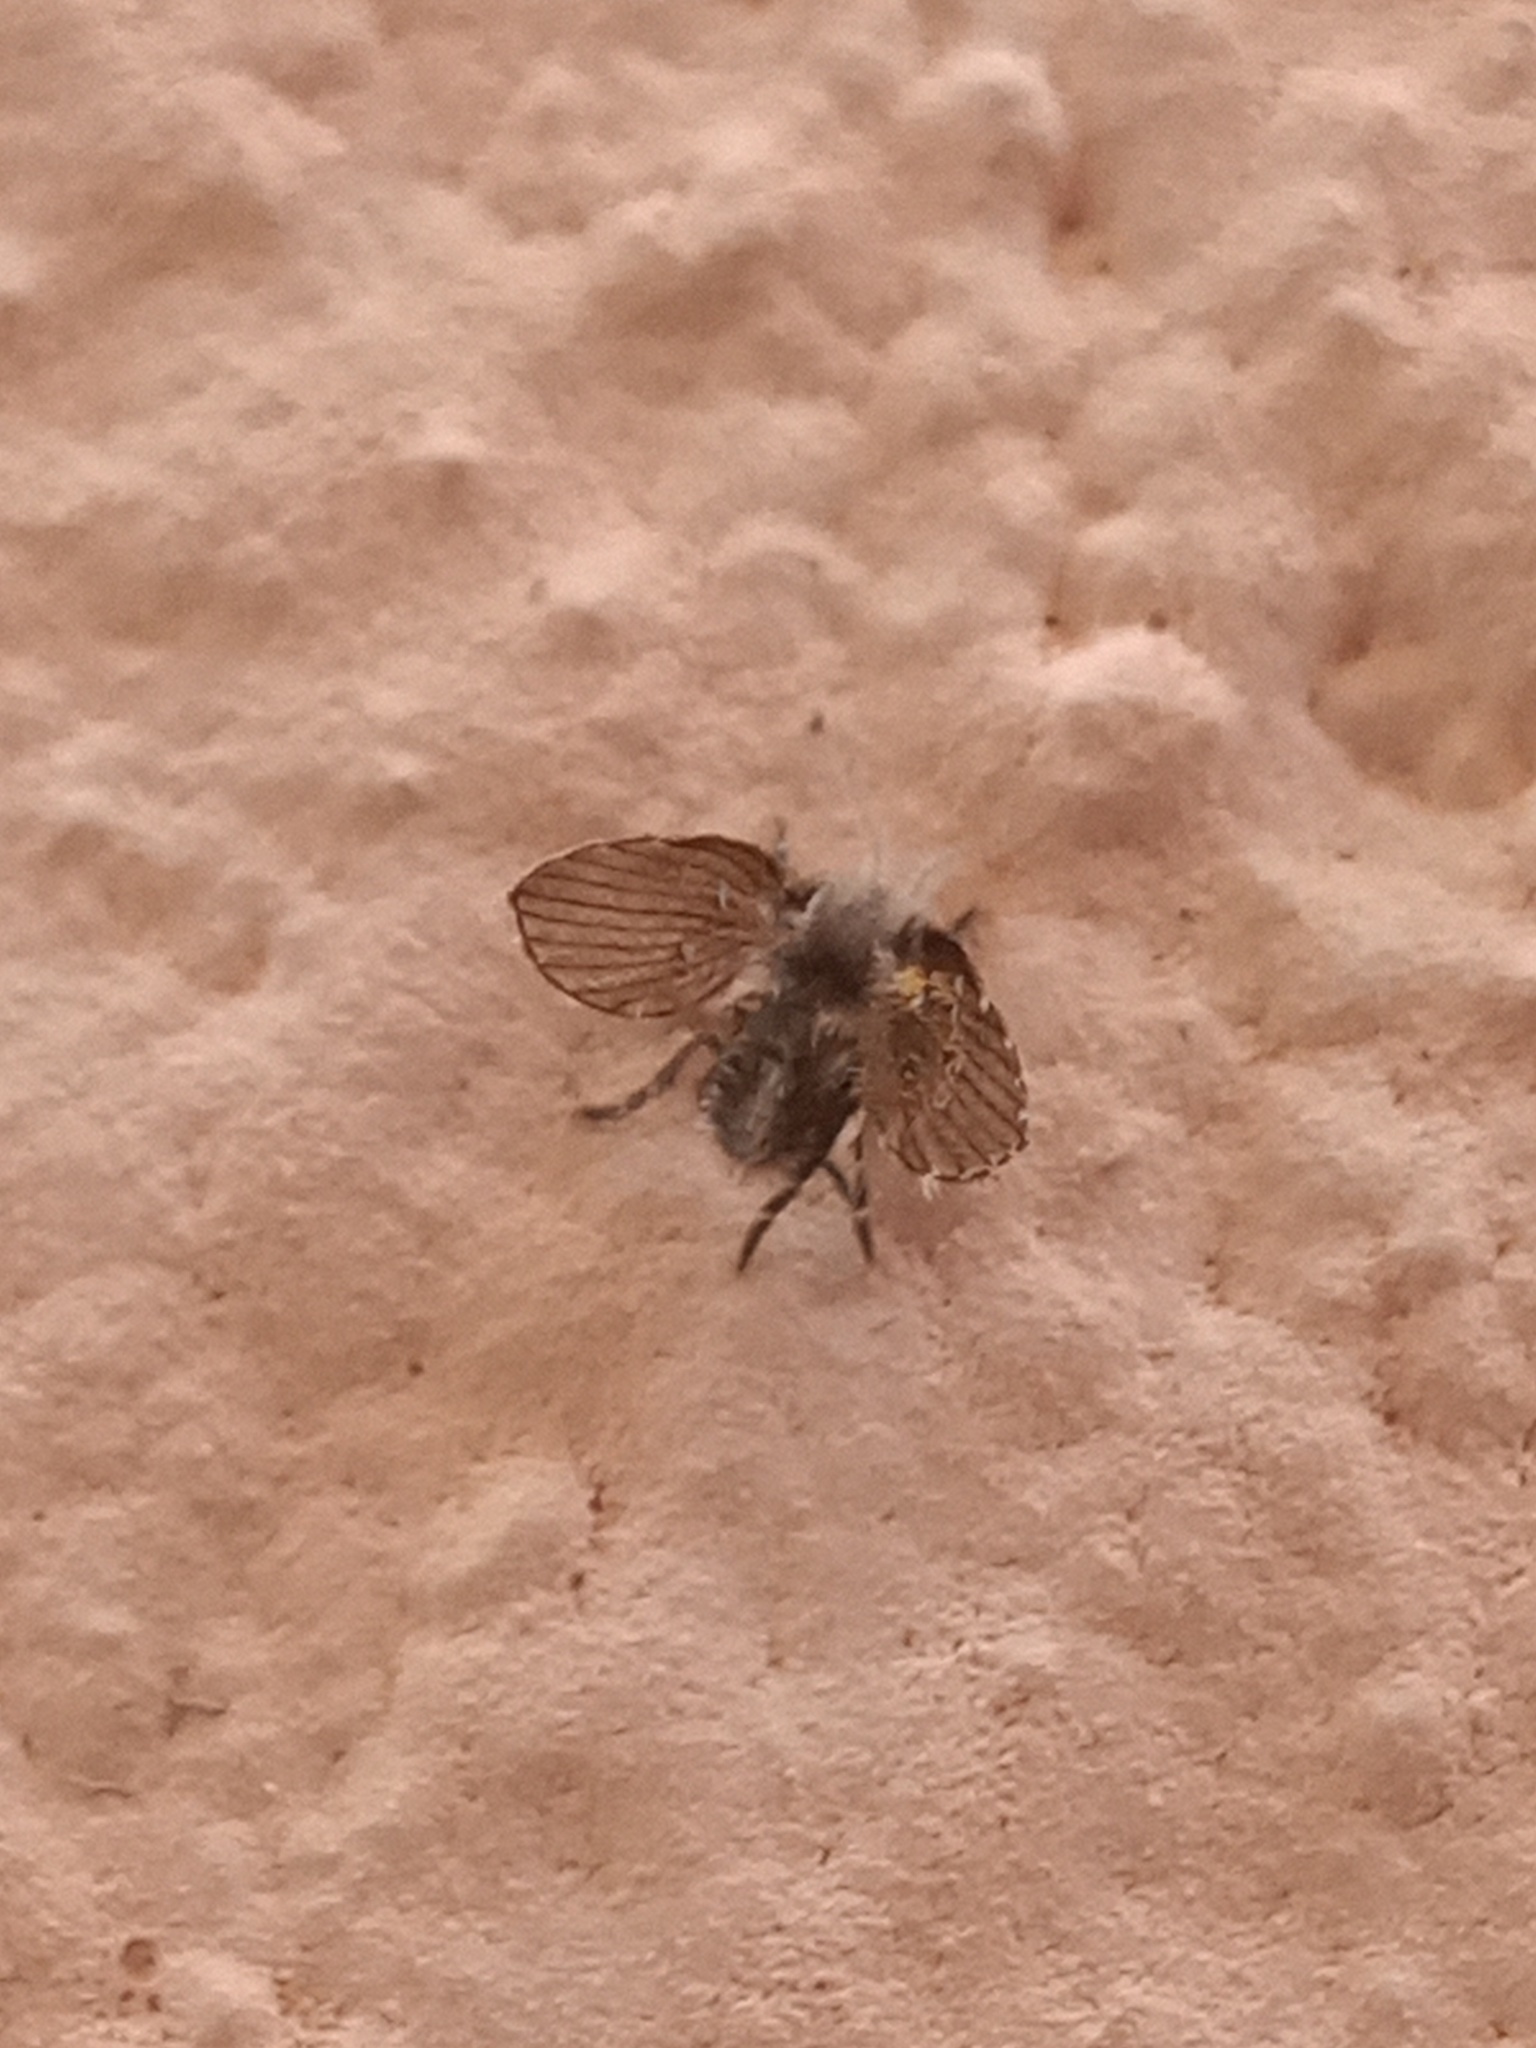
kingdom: Animalia
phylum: Arthropoda
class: Insecta
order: Diptera
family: Psychodidae
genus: Clogmia
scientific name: Clogmia albipunctatus
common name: White-spotted moth fly
